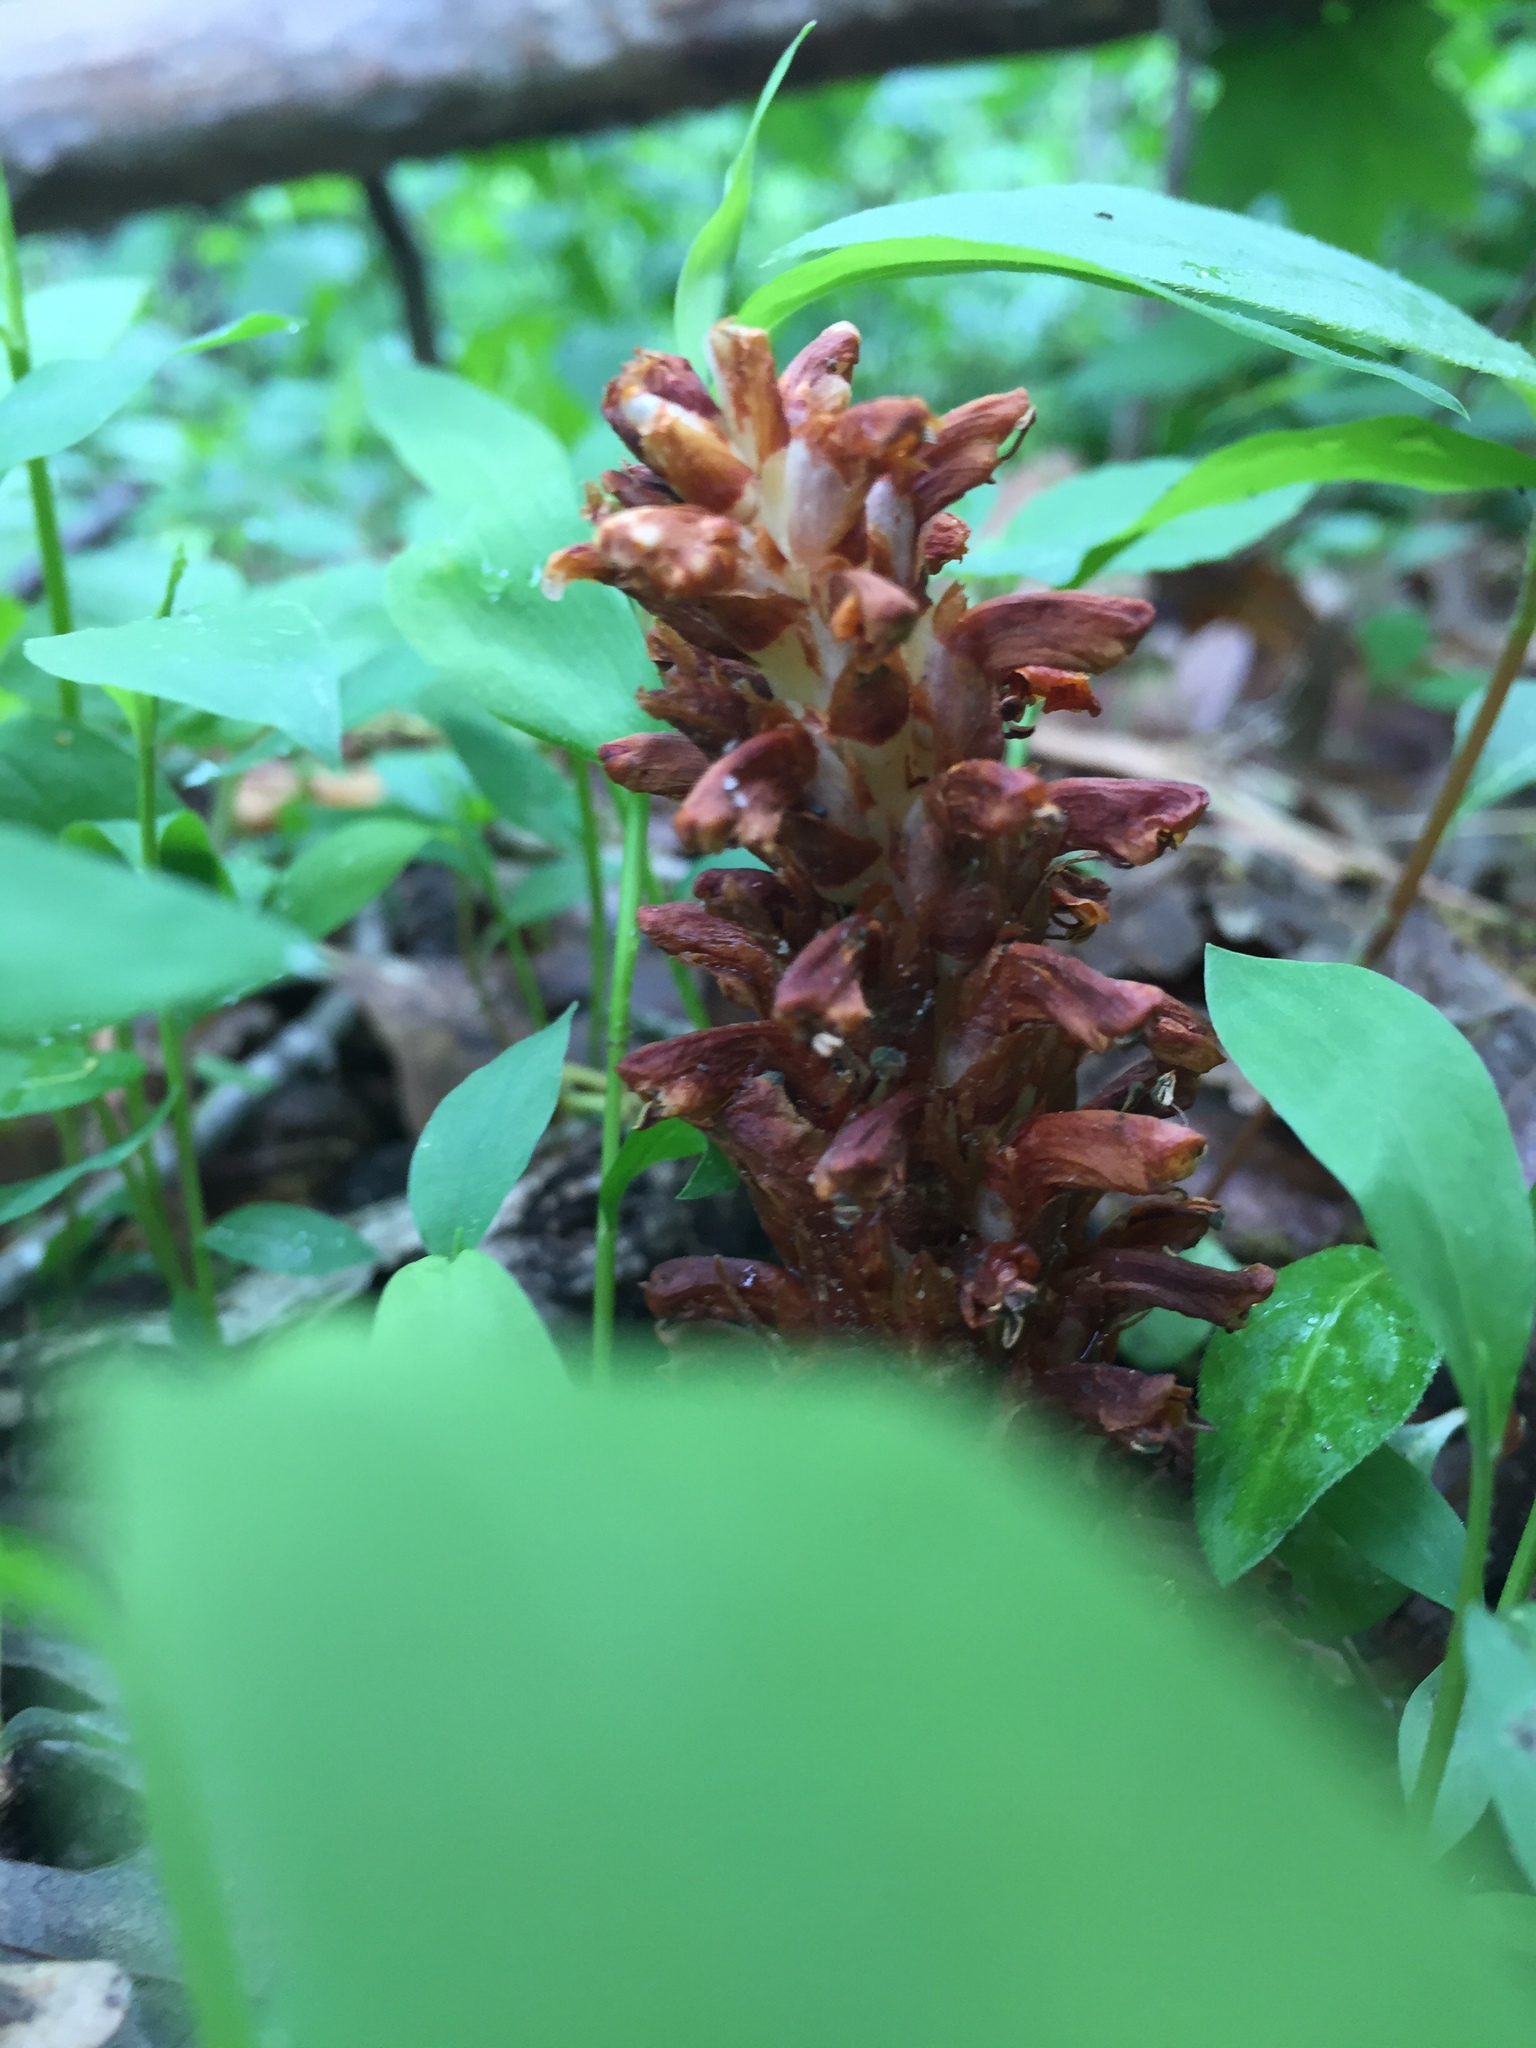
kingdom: Plantae
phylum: Tracheophyta
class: Magnoliopsida
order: Lamiales
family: Orobanchaceae
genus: Conopholis
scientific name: Conopholis americana
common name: American cancer-root
